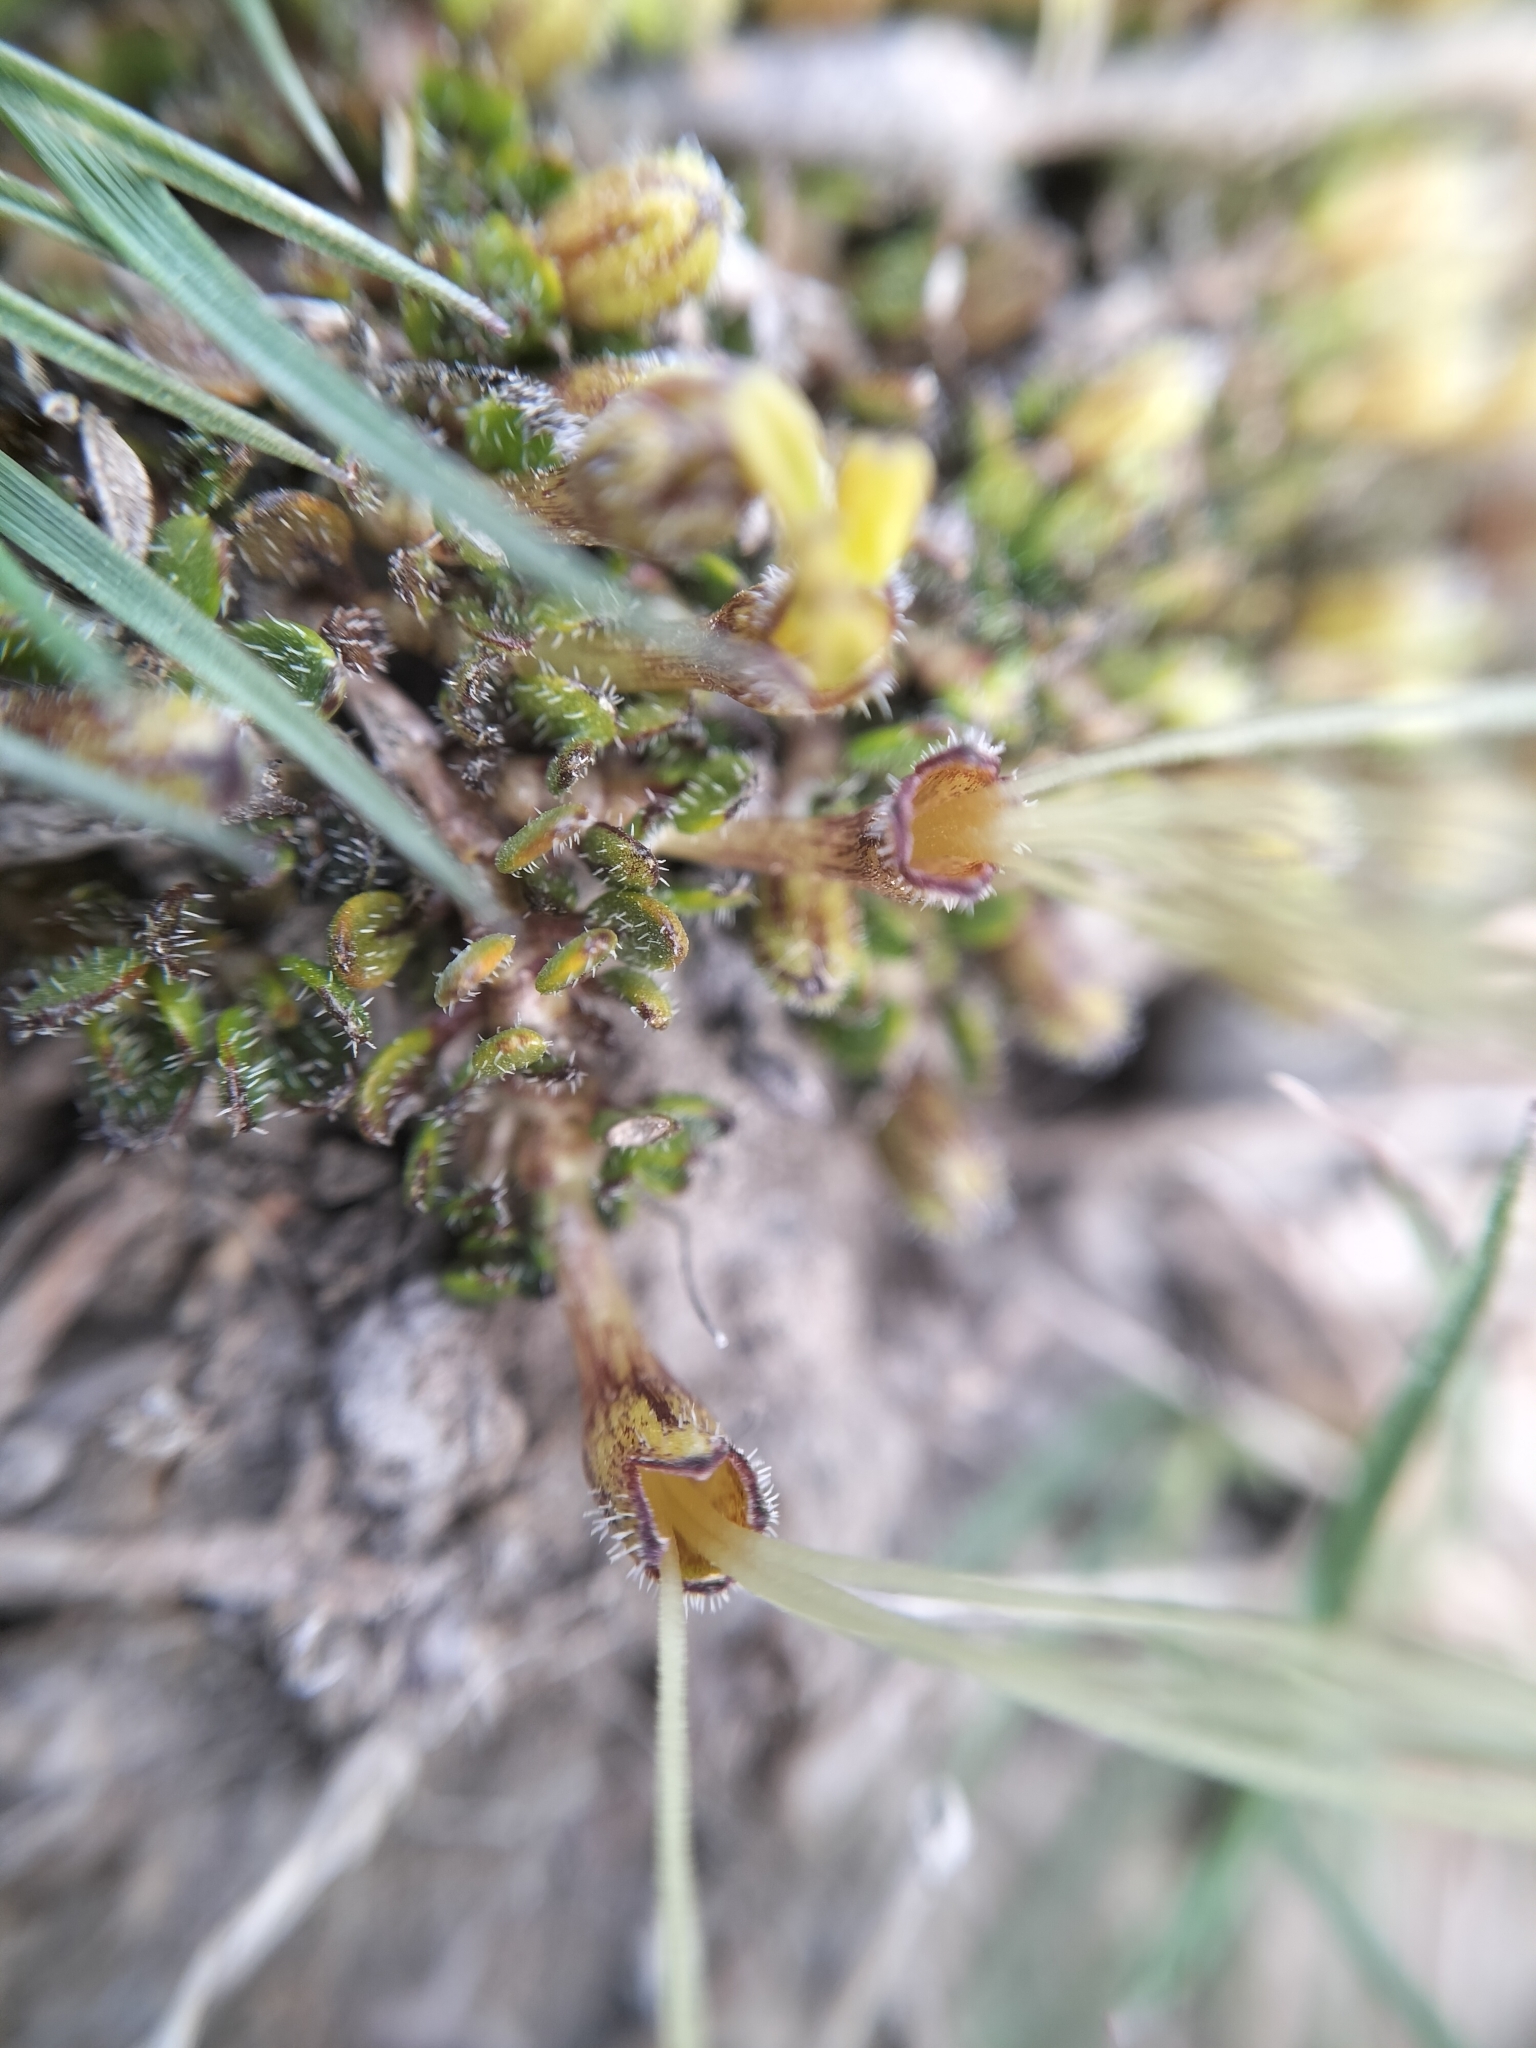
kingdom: Plantae
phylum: Tracheophyta
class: Magnoliopsida
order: Gentianales
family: Rubiaceae
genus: Coprosma
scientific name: Coprosma atropurpurea
